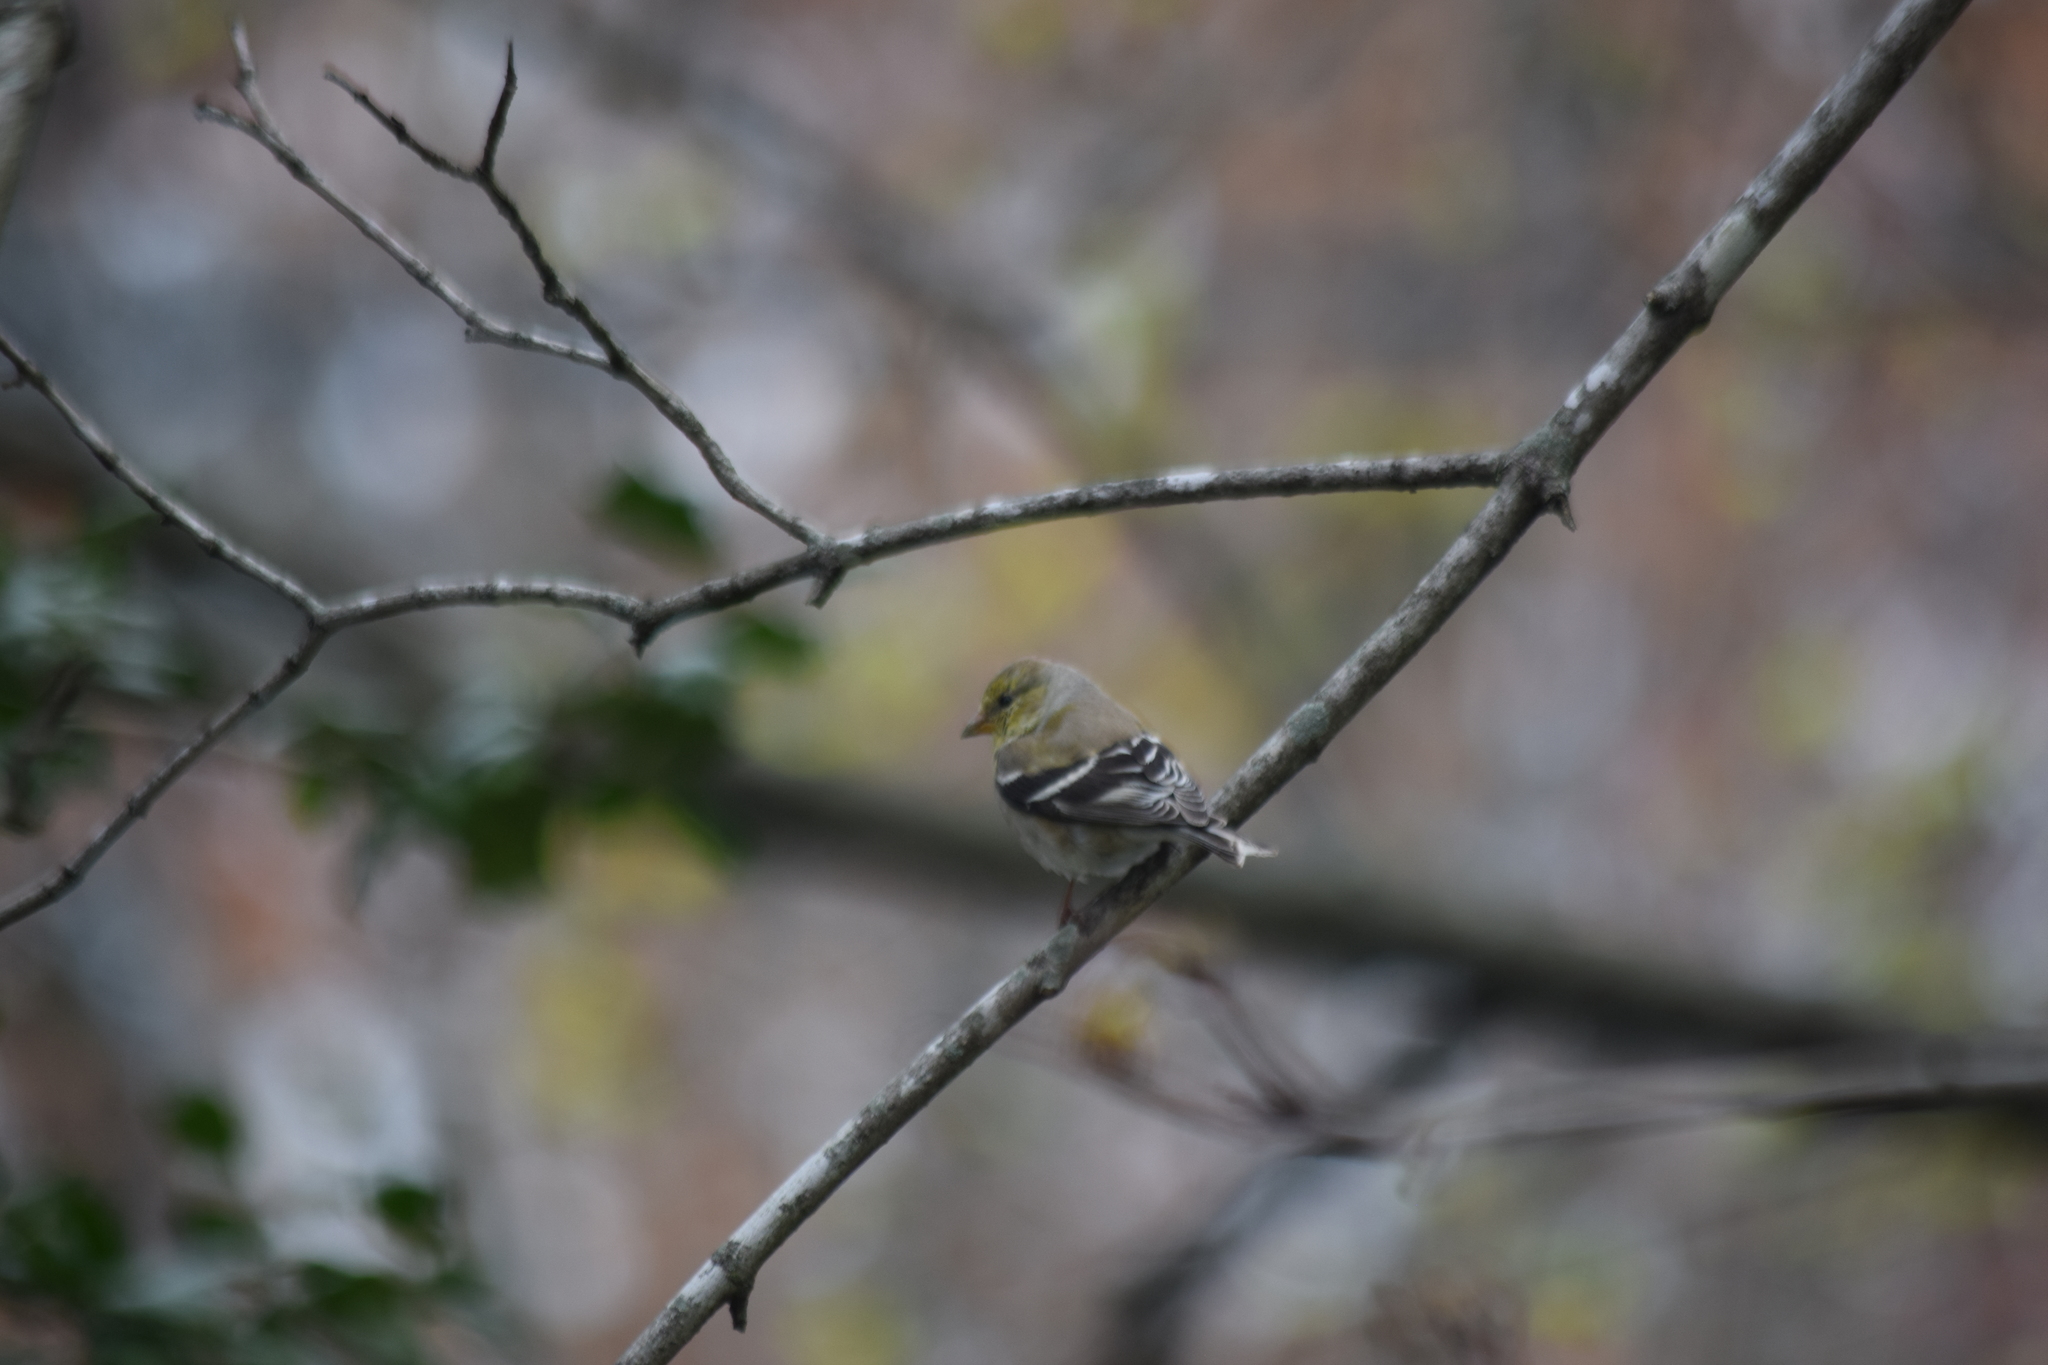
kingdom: Animalia
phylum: Chordata
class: Aves
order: Passeriformes
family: Fringillidae
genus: Spinus
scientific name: Spinus tristis
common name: American goldfinch
